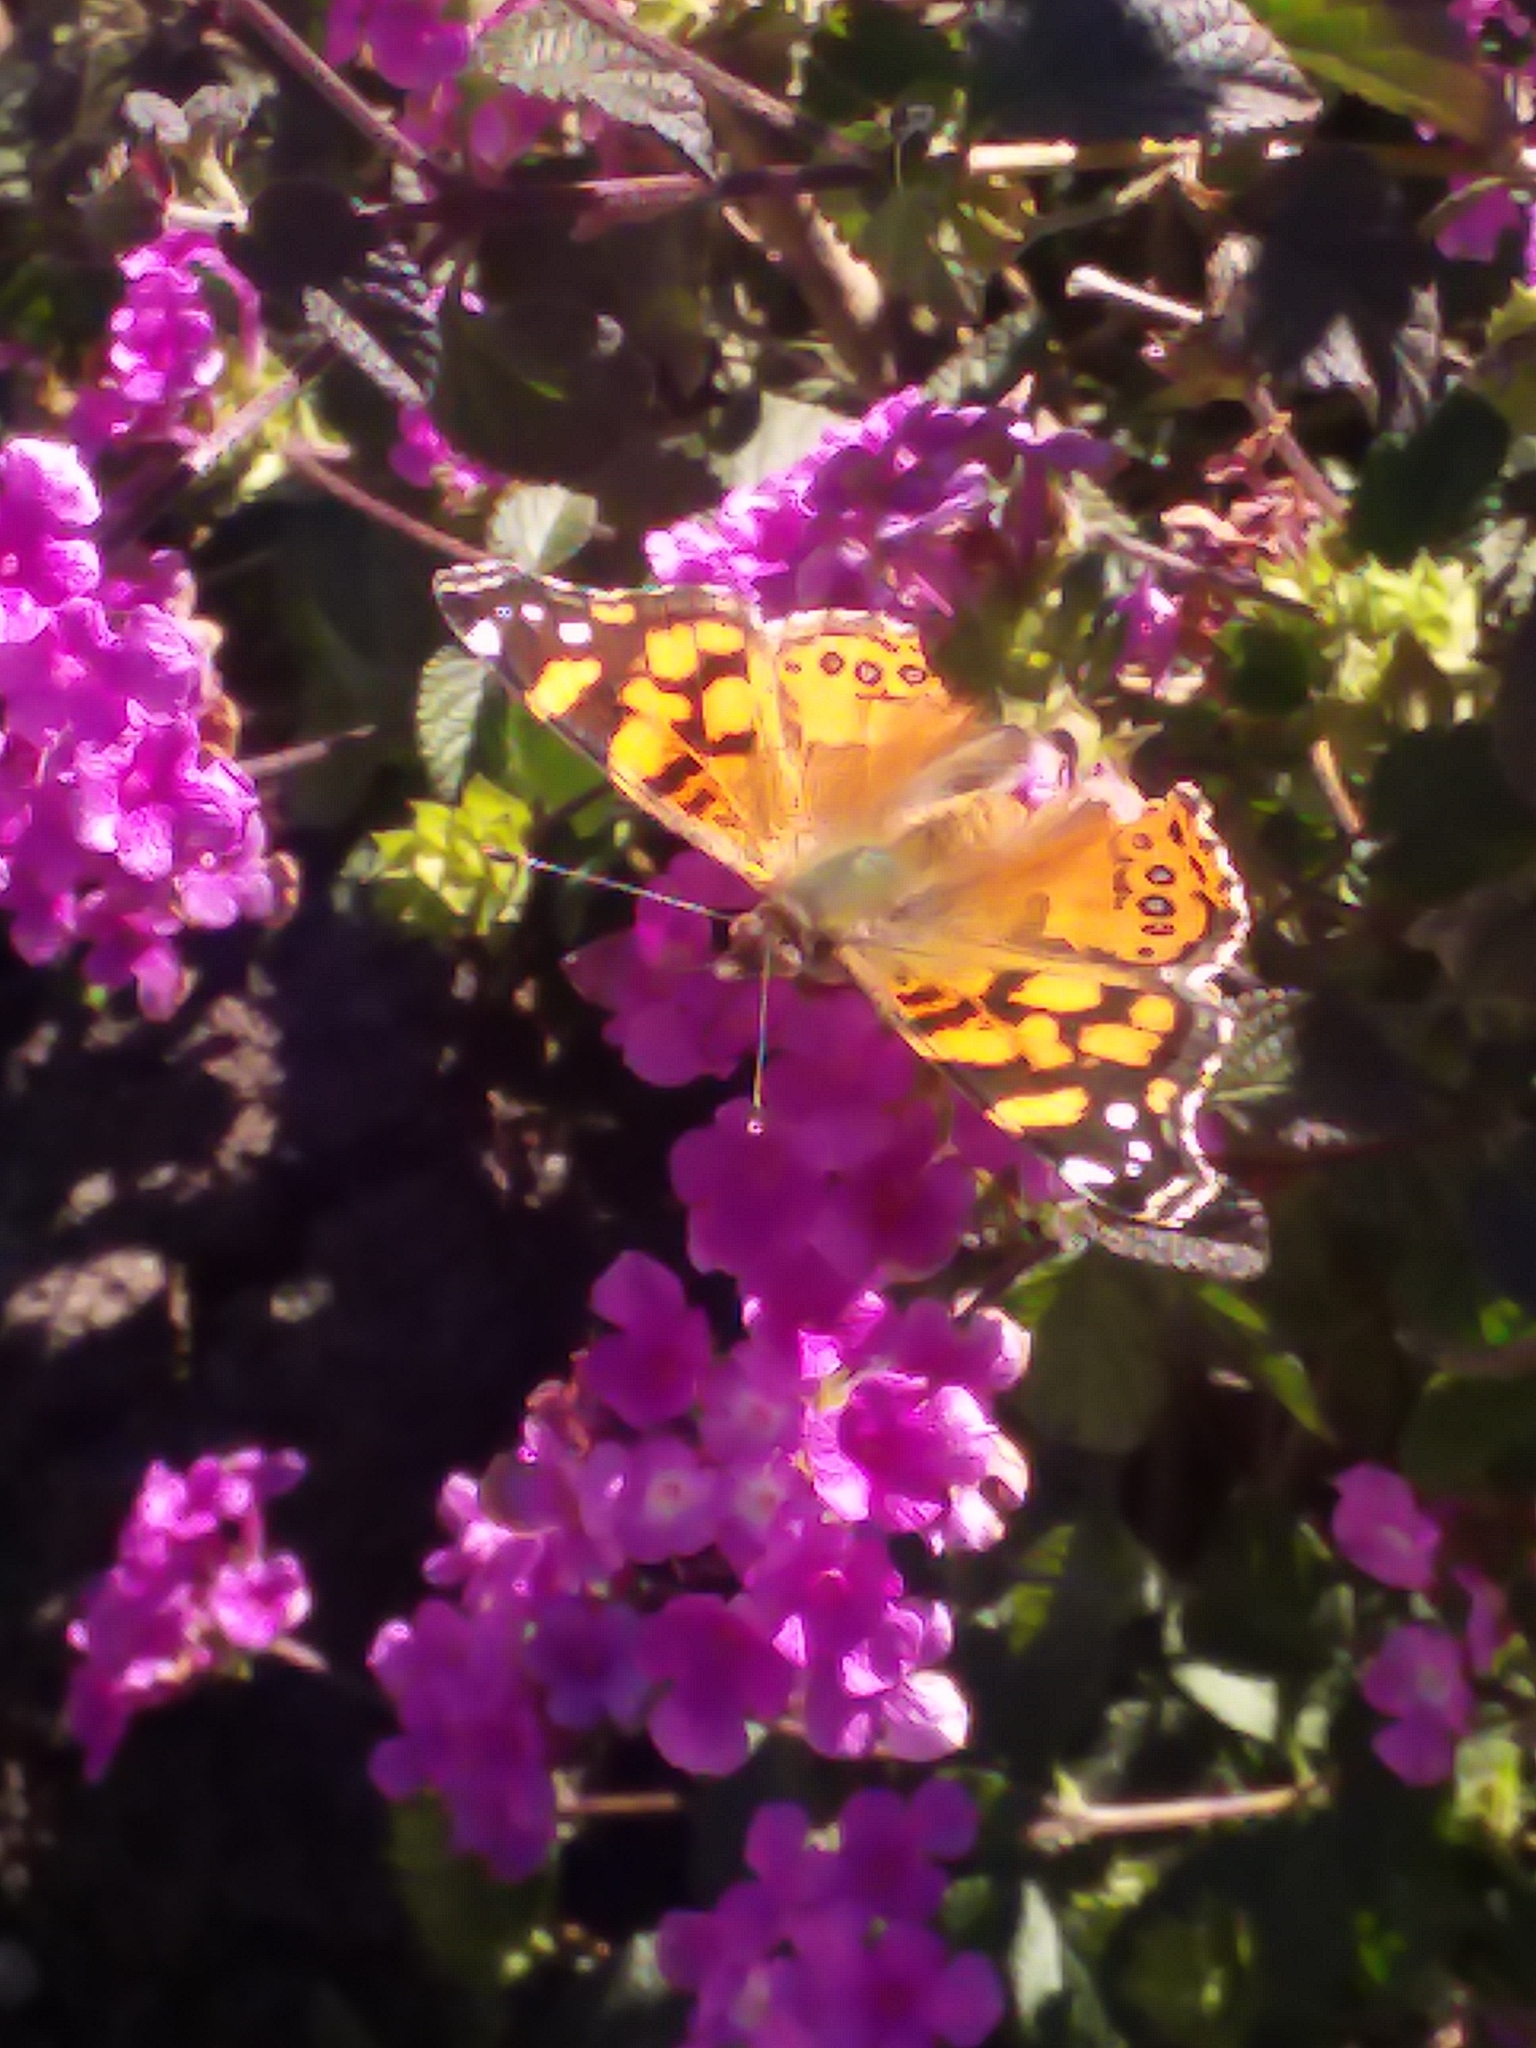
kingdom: Animalia
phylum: Arthropoda
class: Insecta
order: Lepidoptera
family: Nymphalidae
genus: Vanessa
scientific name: Vanessa annabella
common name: West coast lady
